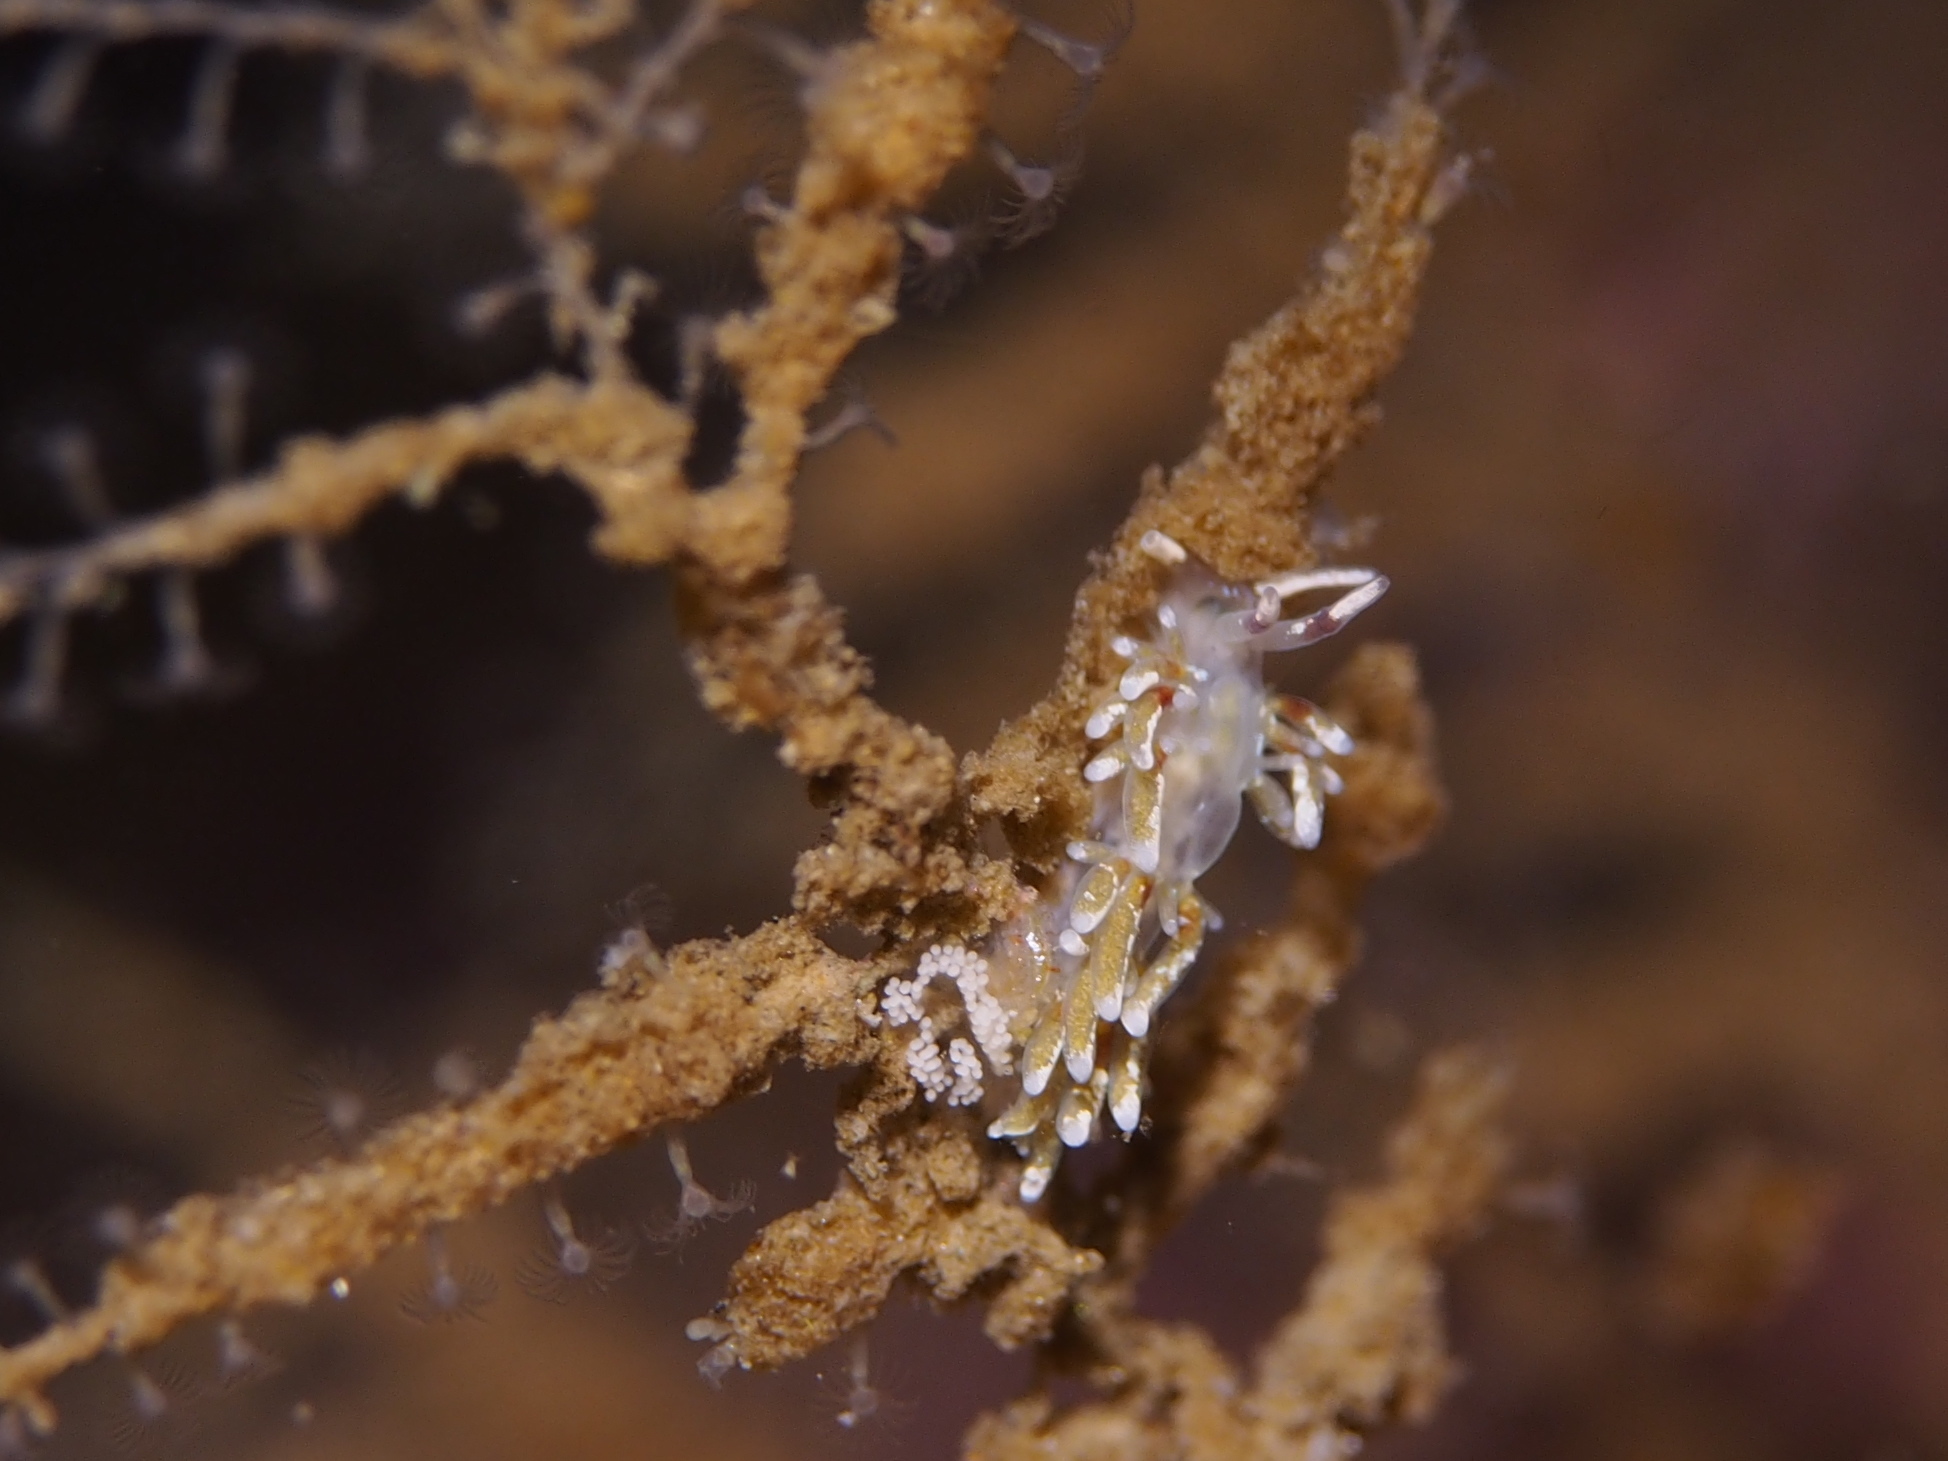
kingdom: Animalia
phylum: Mollusca
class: Gastropoda
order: Nudibranchia
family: Trinchesiidae
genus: Rubramoena
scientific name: Rubramoena rubescens
